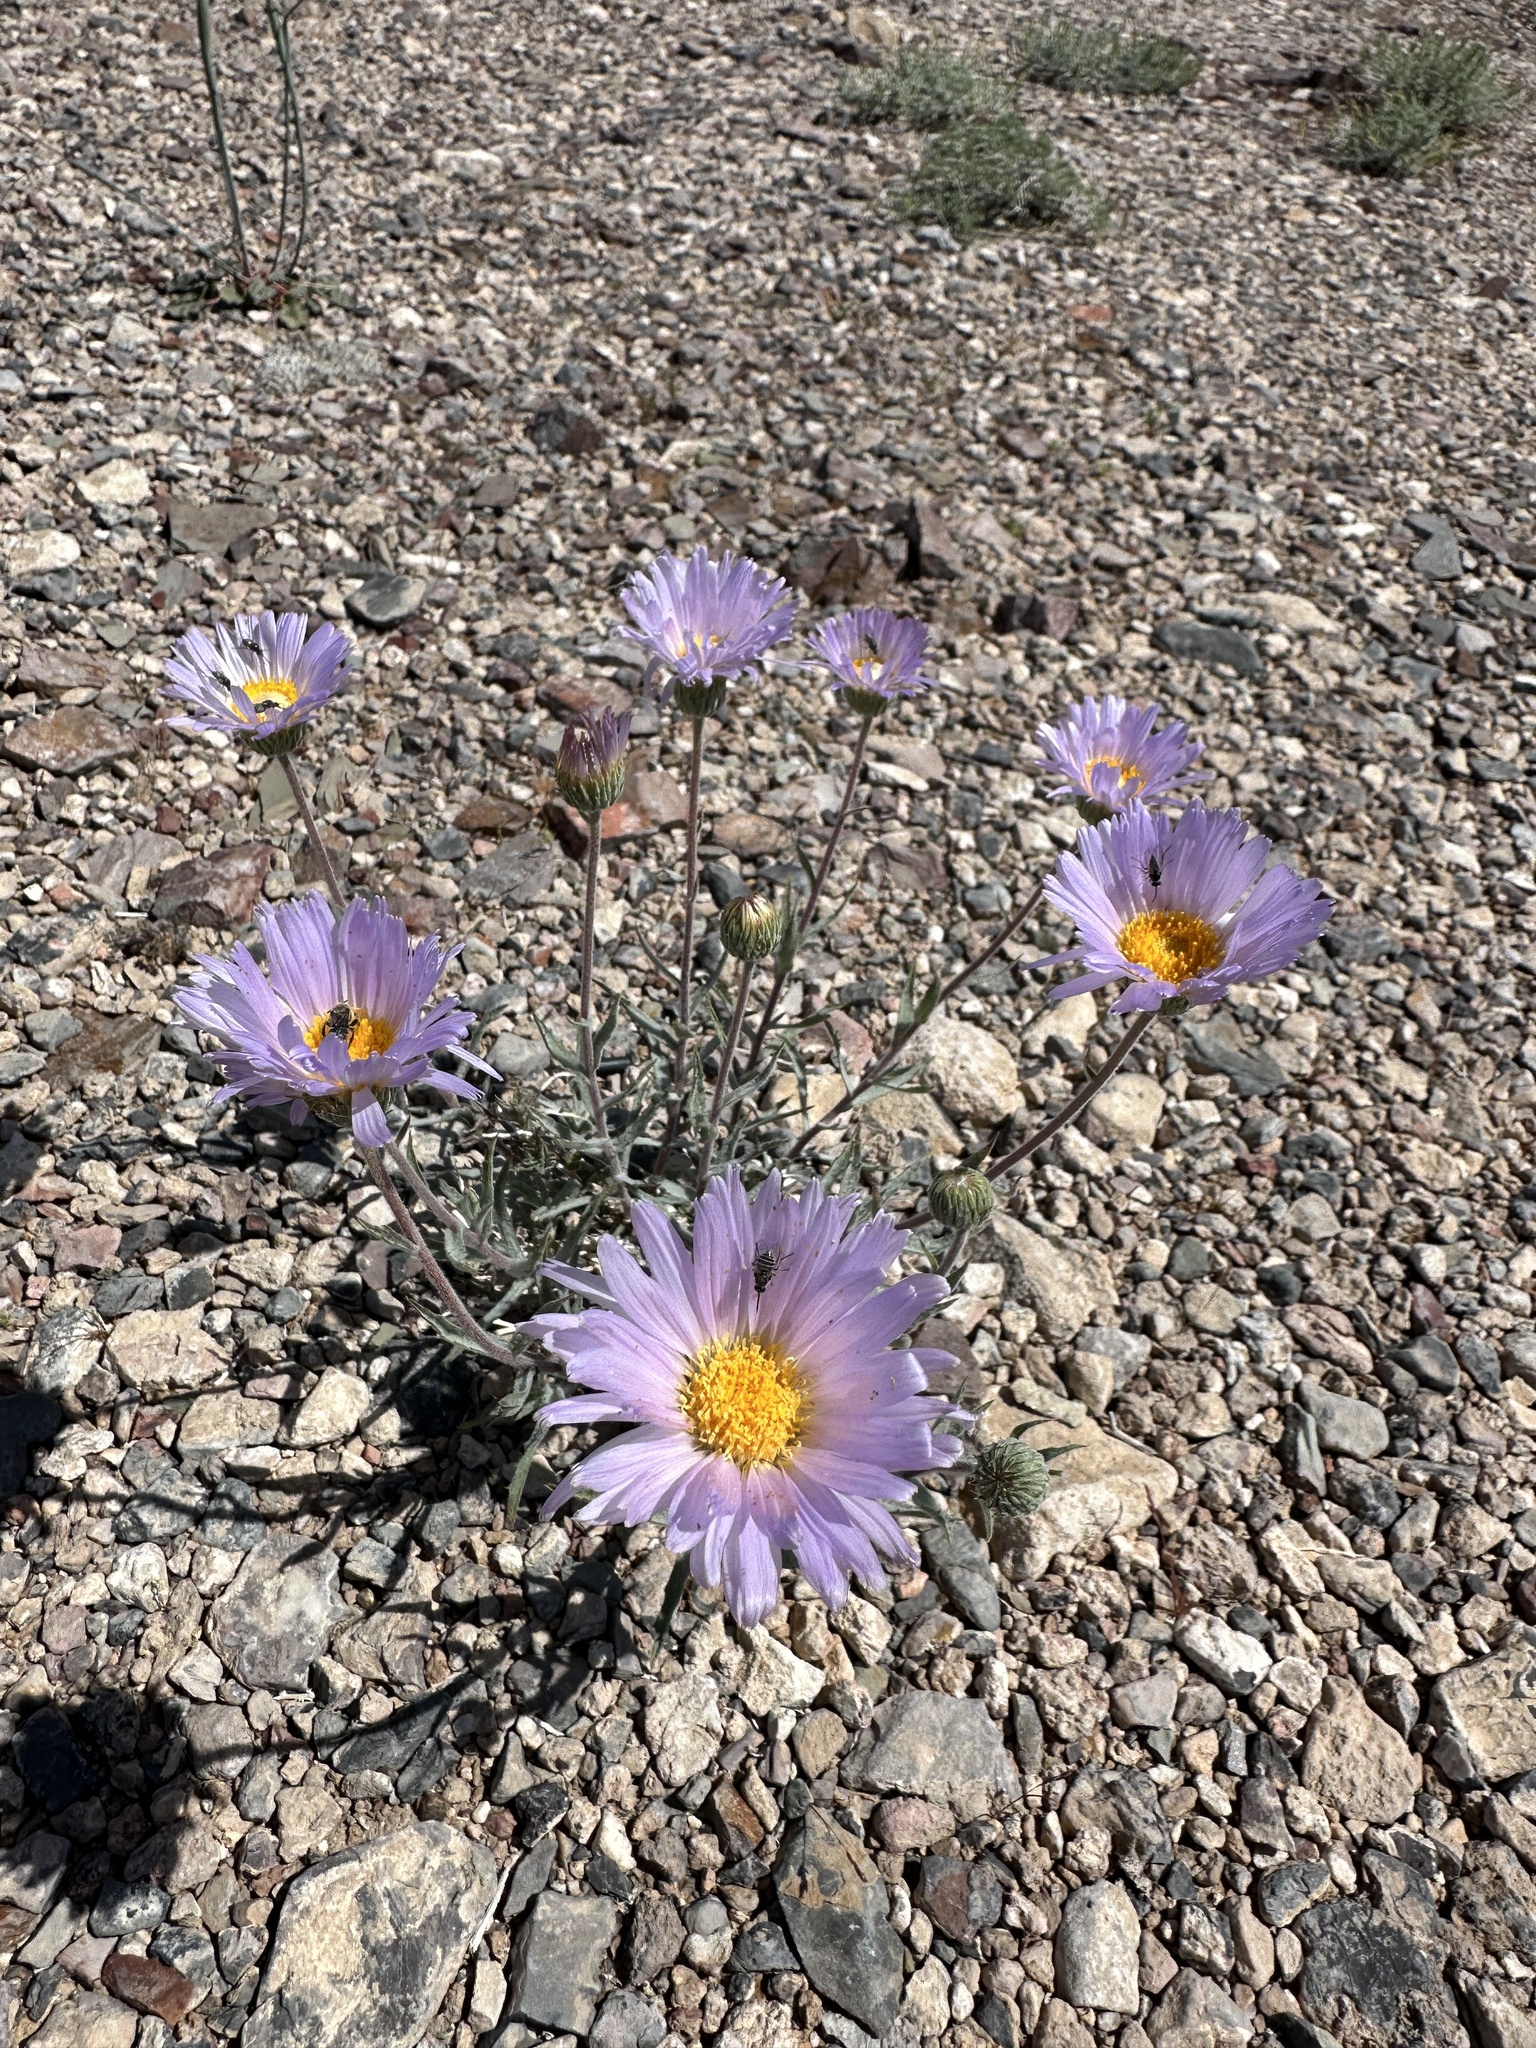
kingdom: Plantae
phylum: Tracheophyta
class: Magnoliopsida
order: Asterales
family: Asteraceae
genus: Xylorhiza
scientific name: Xylorhiza tortifolia
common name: Hurt-leaf woody-aster
